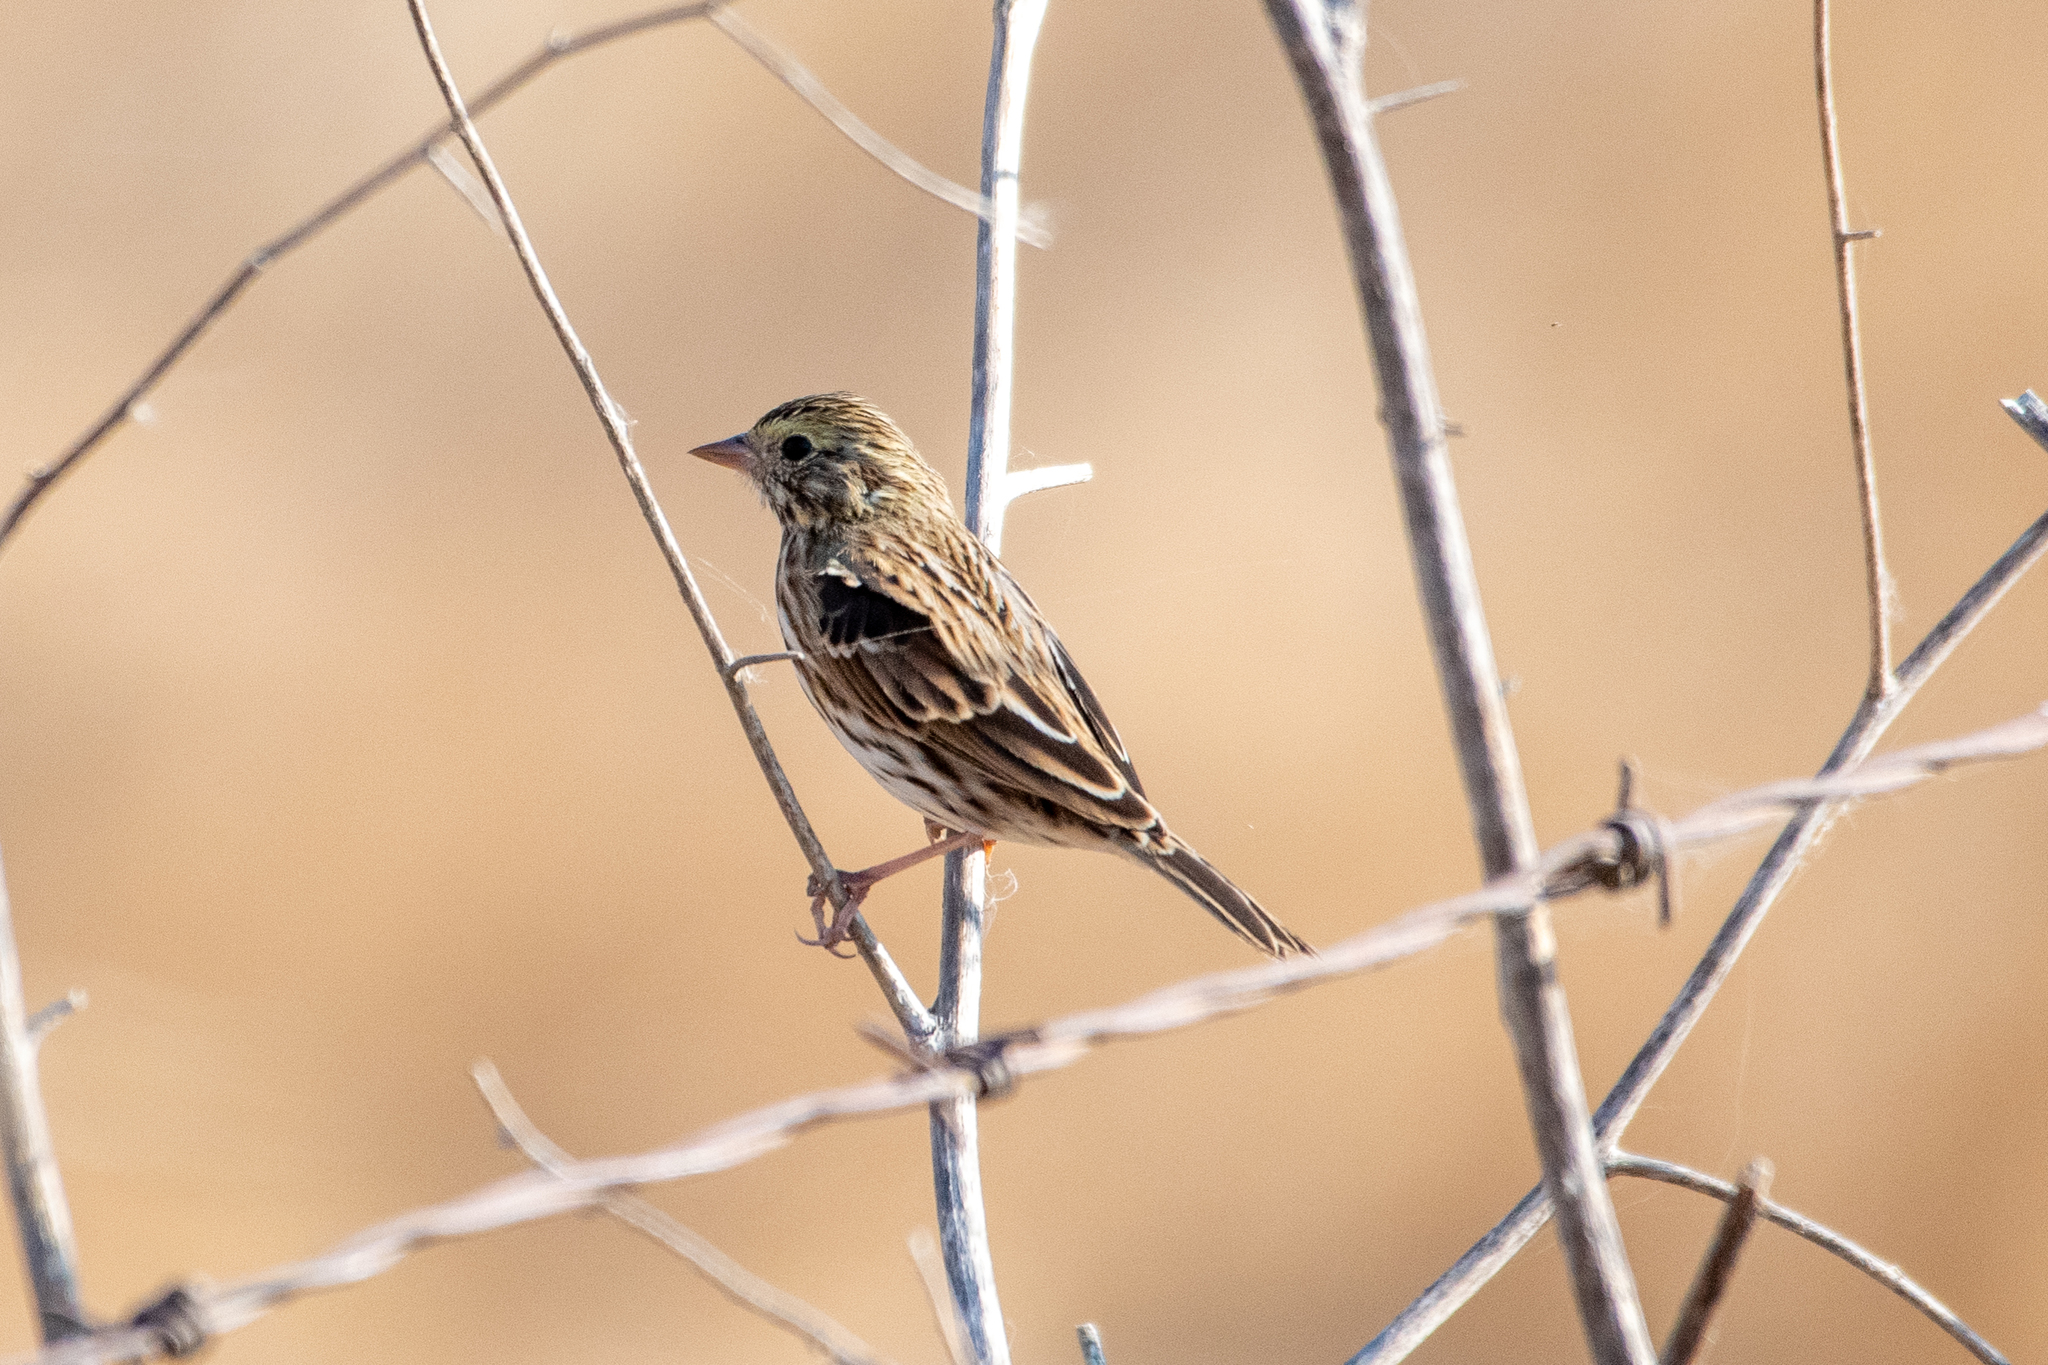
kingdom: Animalia
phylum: Chordata
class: Aves
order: Passeriformes
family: Passerellidae
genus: Passerculus
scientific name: Passerculus sandwichensis
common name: Savannah sparrow
